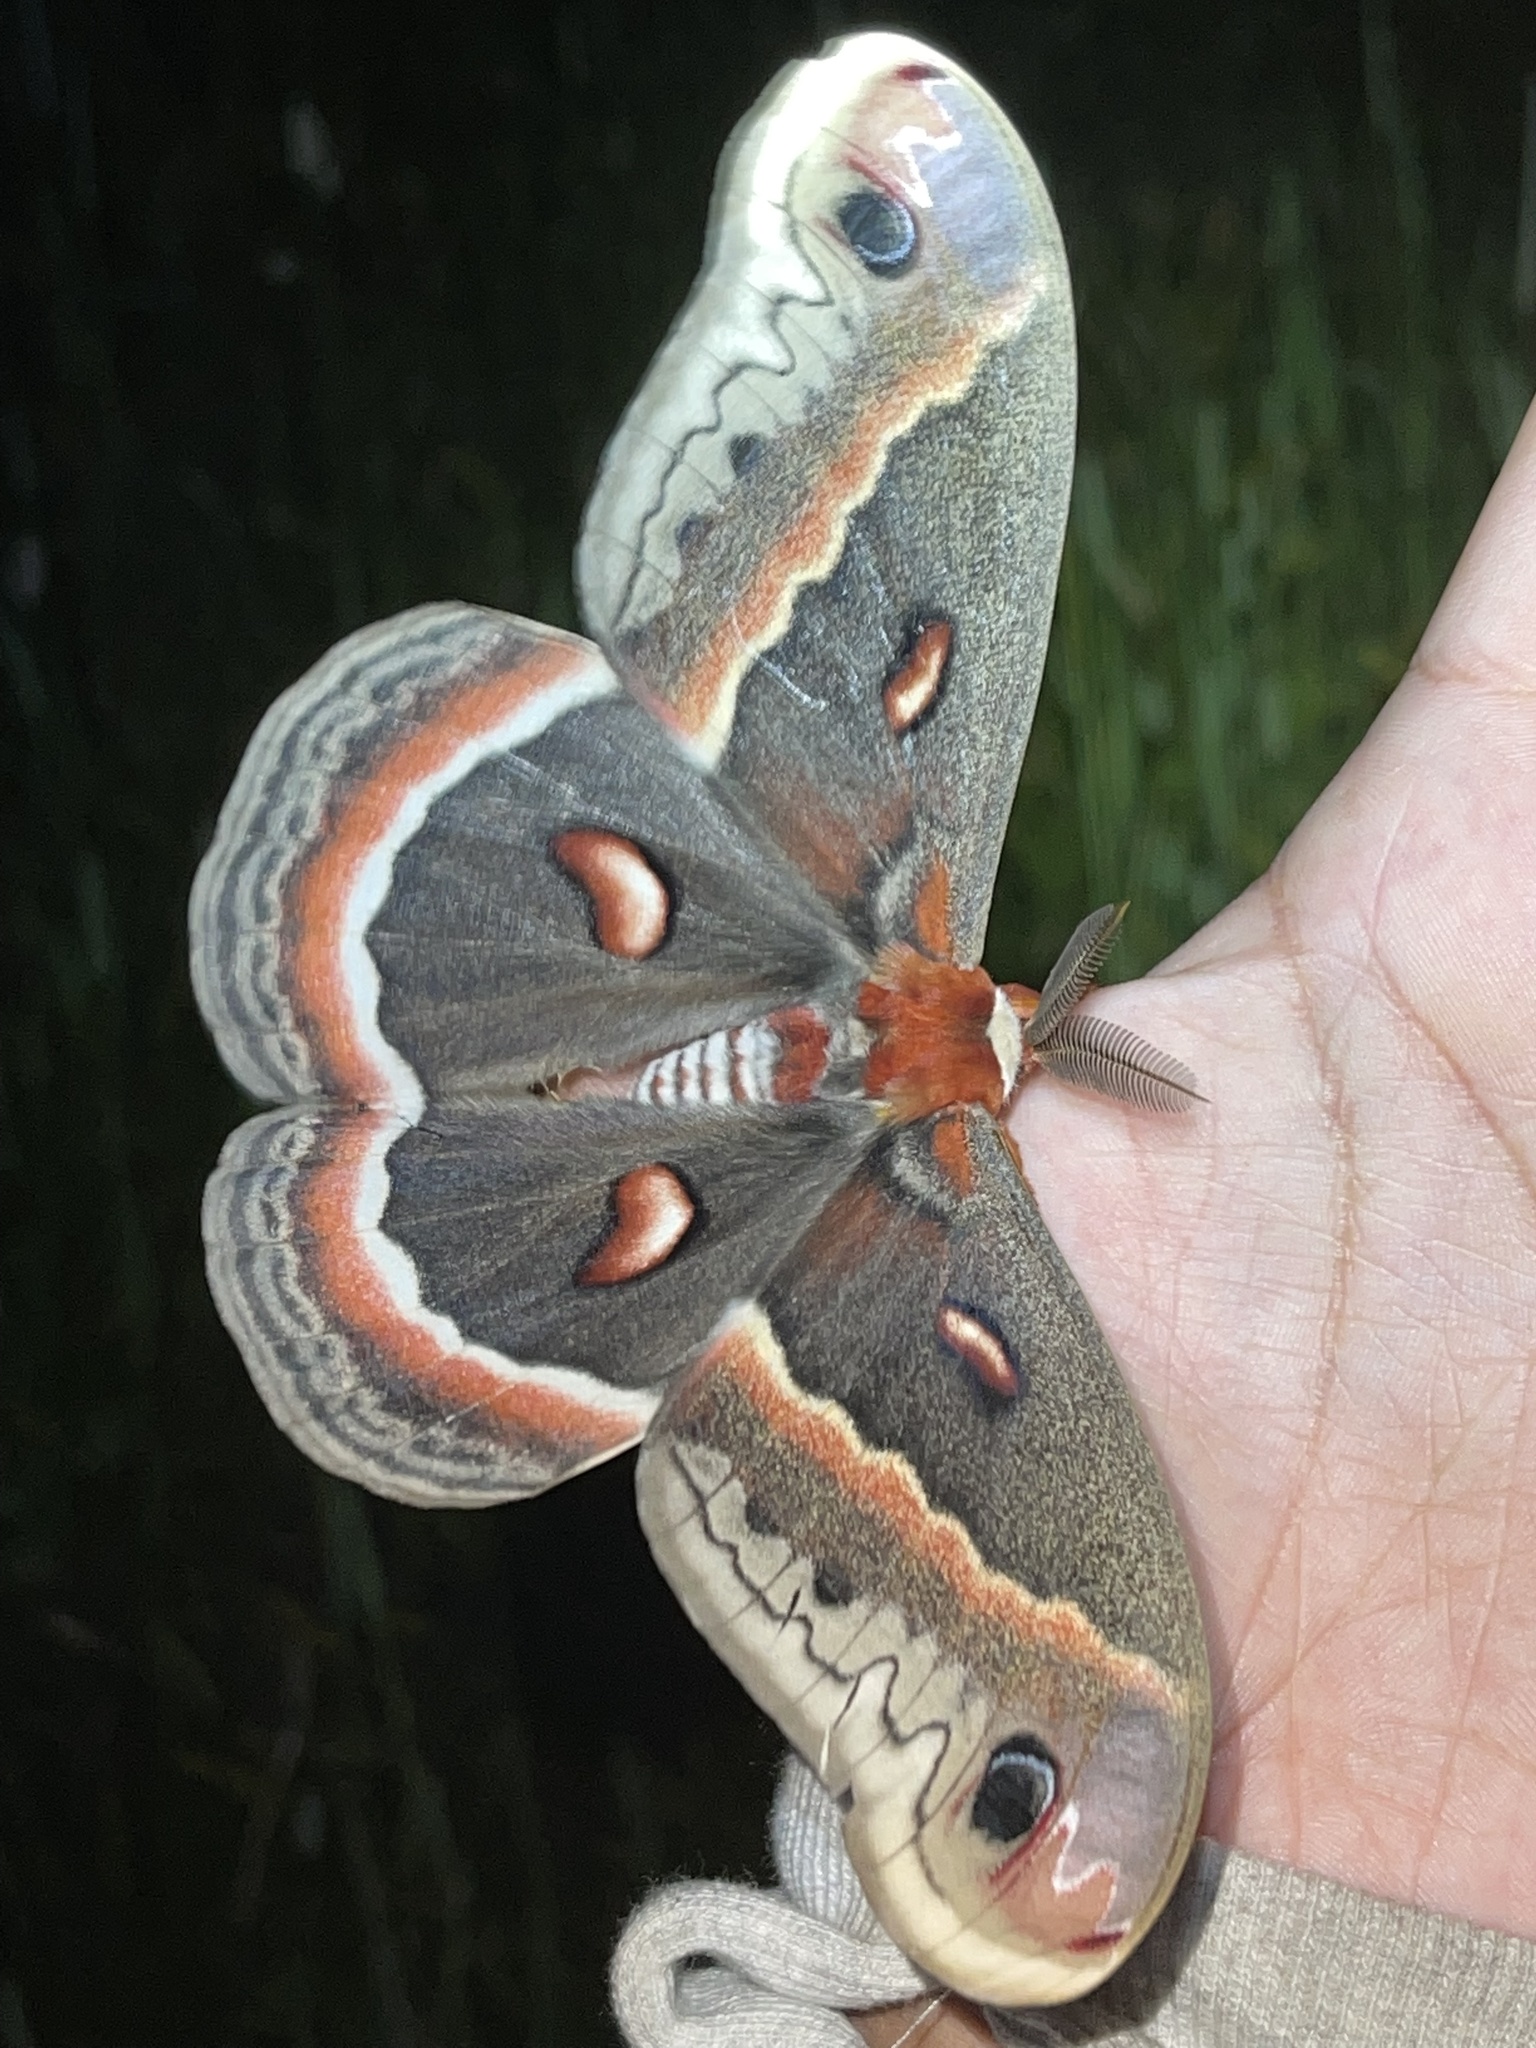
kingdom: Animalia
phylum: Arthropoda
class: Insecta
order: Lepidoptera
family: Saturniidae
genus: Hyalophora
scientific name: Hyalophora cecropia
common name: Cecropia silkmoth
